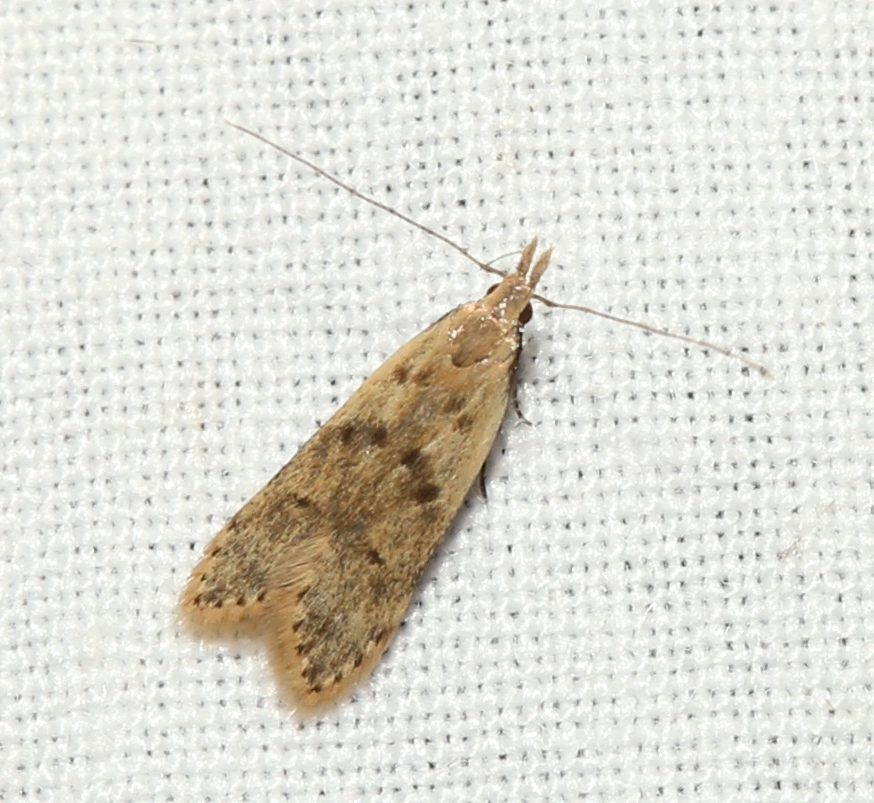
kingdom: Animalia
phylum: Arthropoda
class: Insecta
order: Lepidoptera
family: Gelechiidae
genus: Dichomeris
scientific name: Dichomeris punctipennella
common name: Many-spotted dichomeris moth
